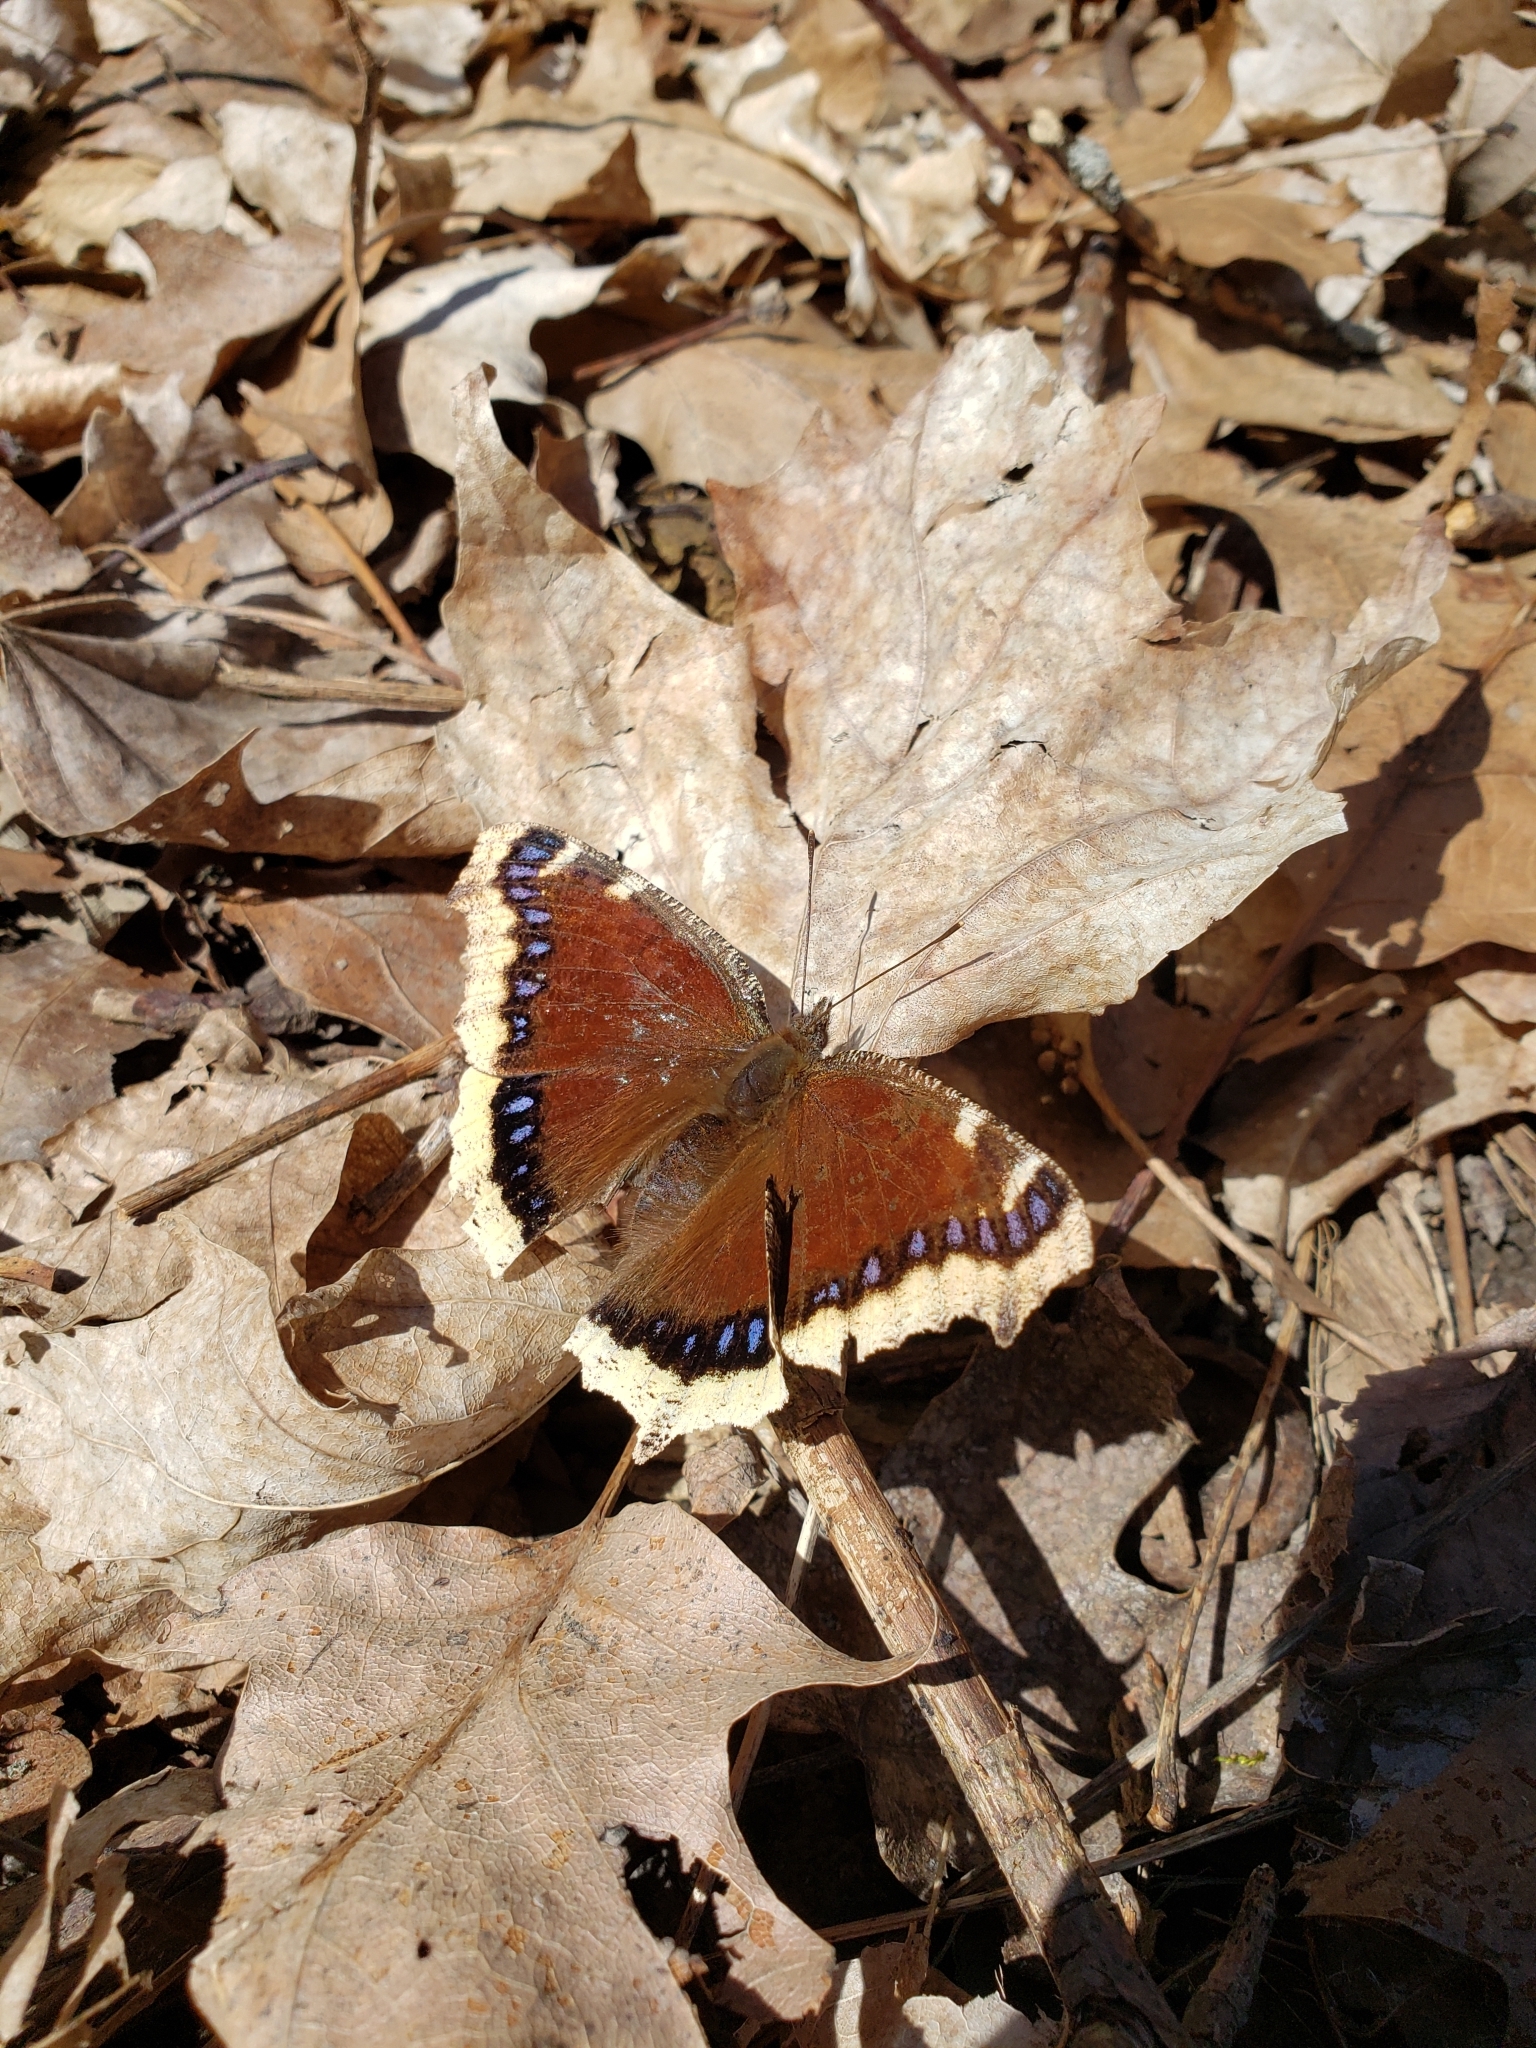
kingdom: Animalia
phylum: Arthropoda
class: Insecta
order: Lepidoptera
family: Nymphalidae
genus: Nymphalis
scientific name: Nymphalis antiopa
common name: Camberwell beauty
